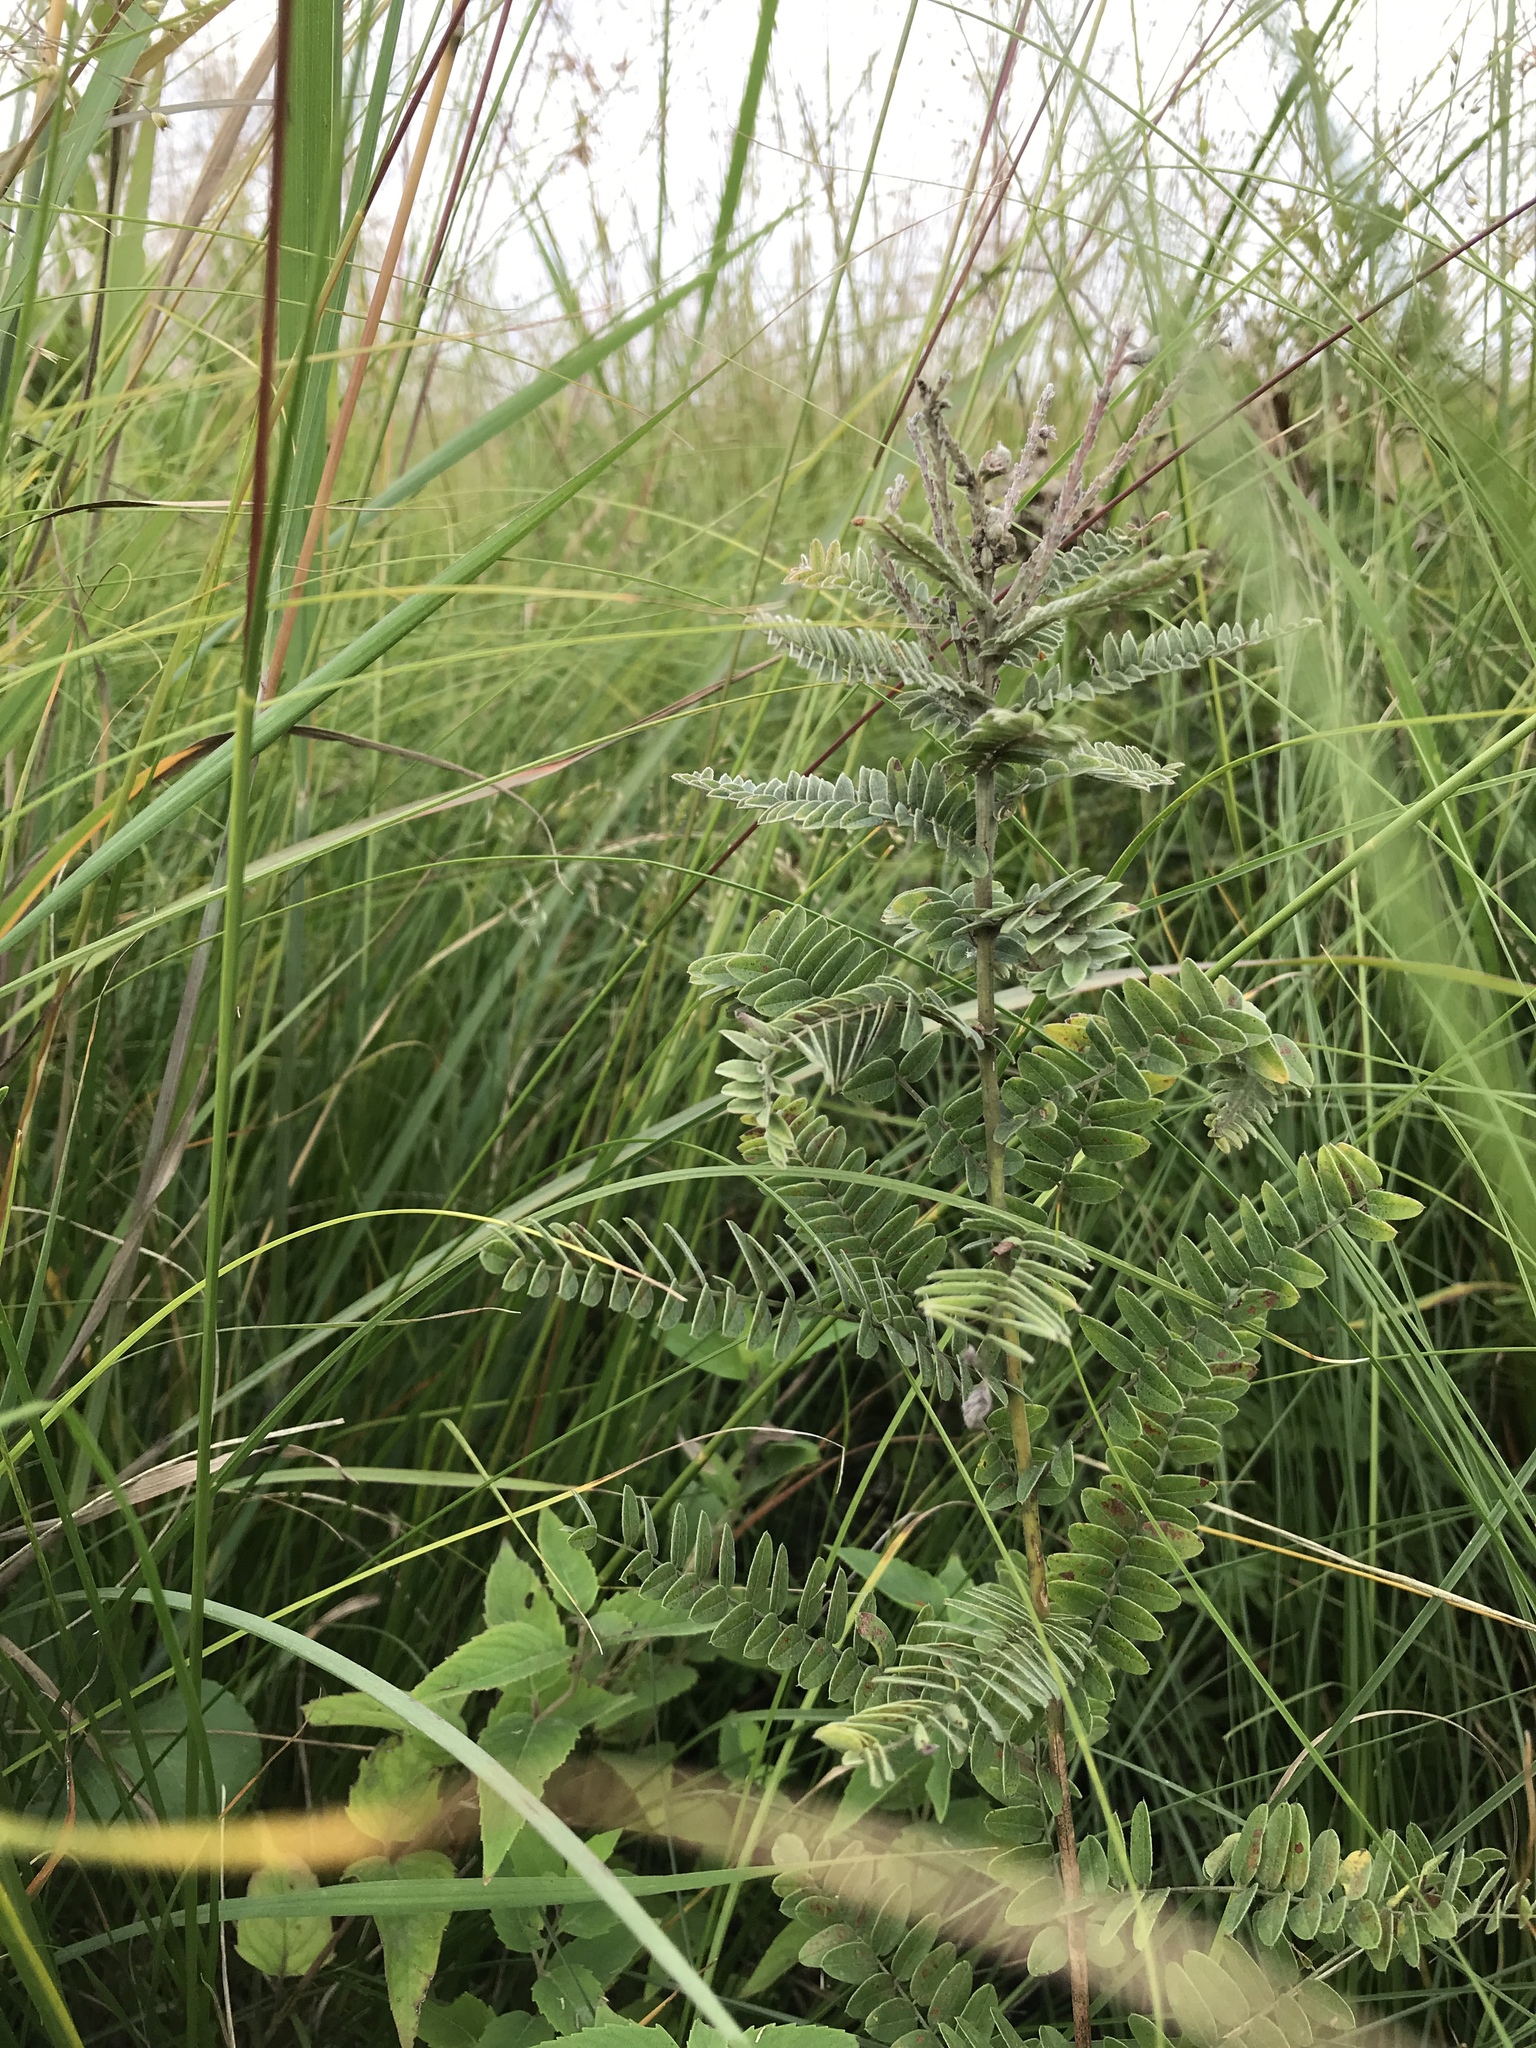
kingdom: Plantae
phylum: Tracheophyta
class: Magnoliopsida
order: Fabales
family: Fabaceae
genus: Amorpha
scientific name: Amorpha canescens
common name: Leadplant
